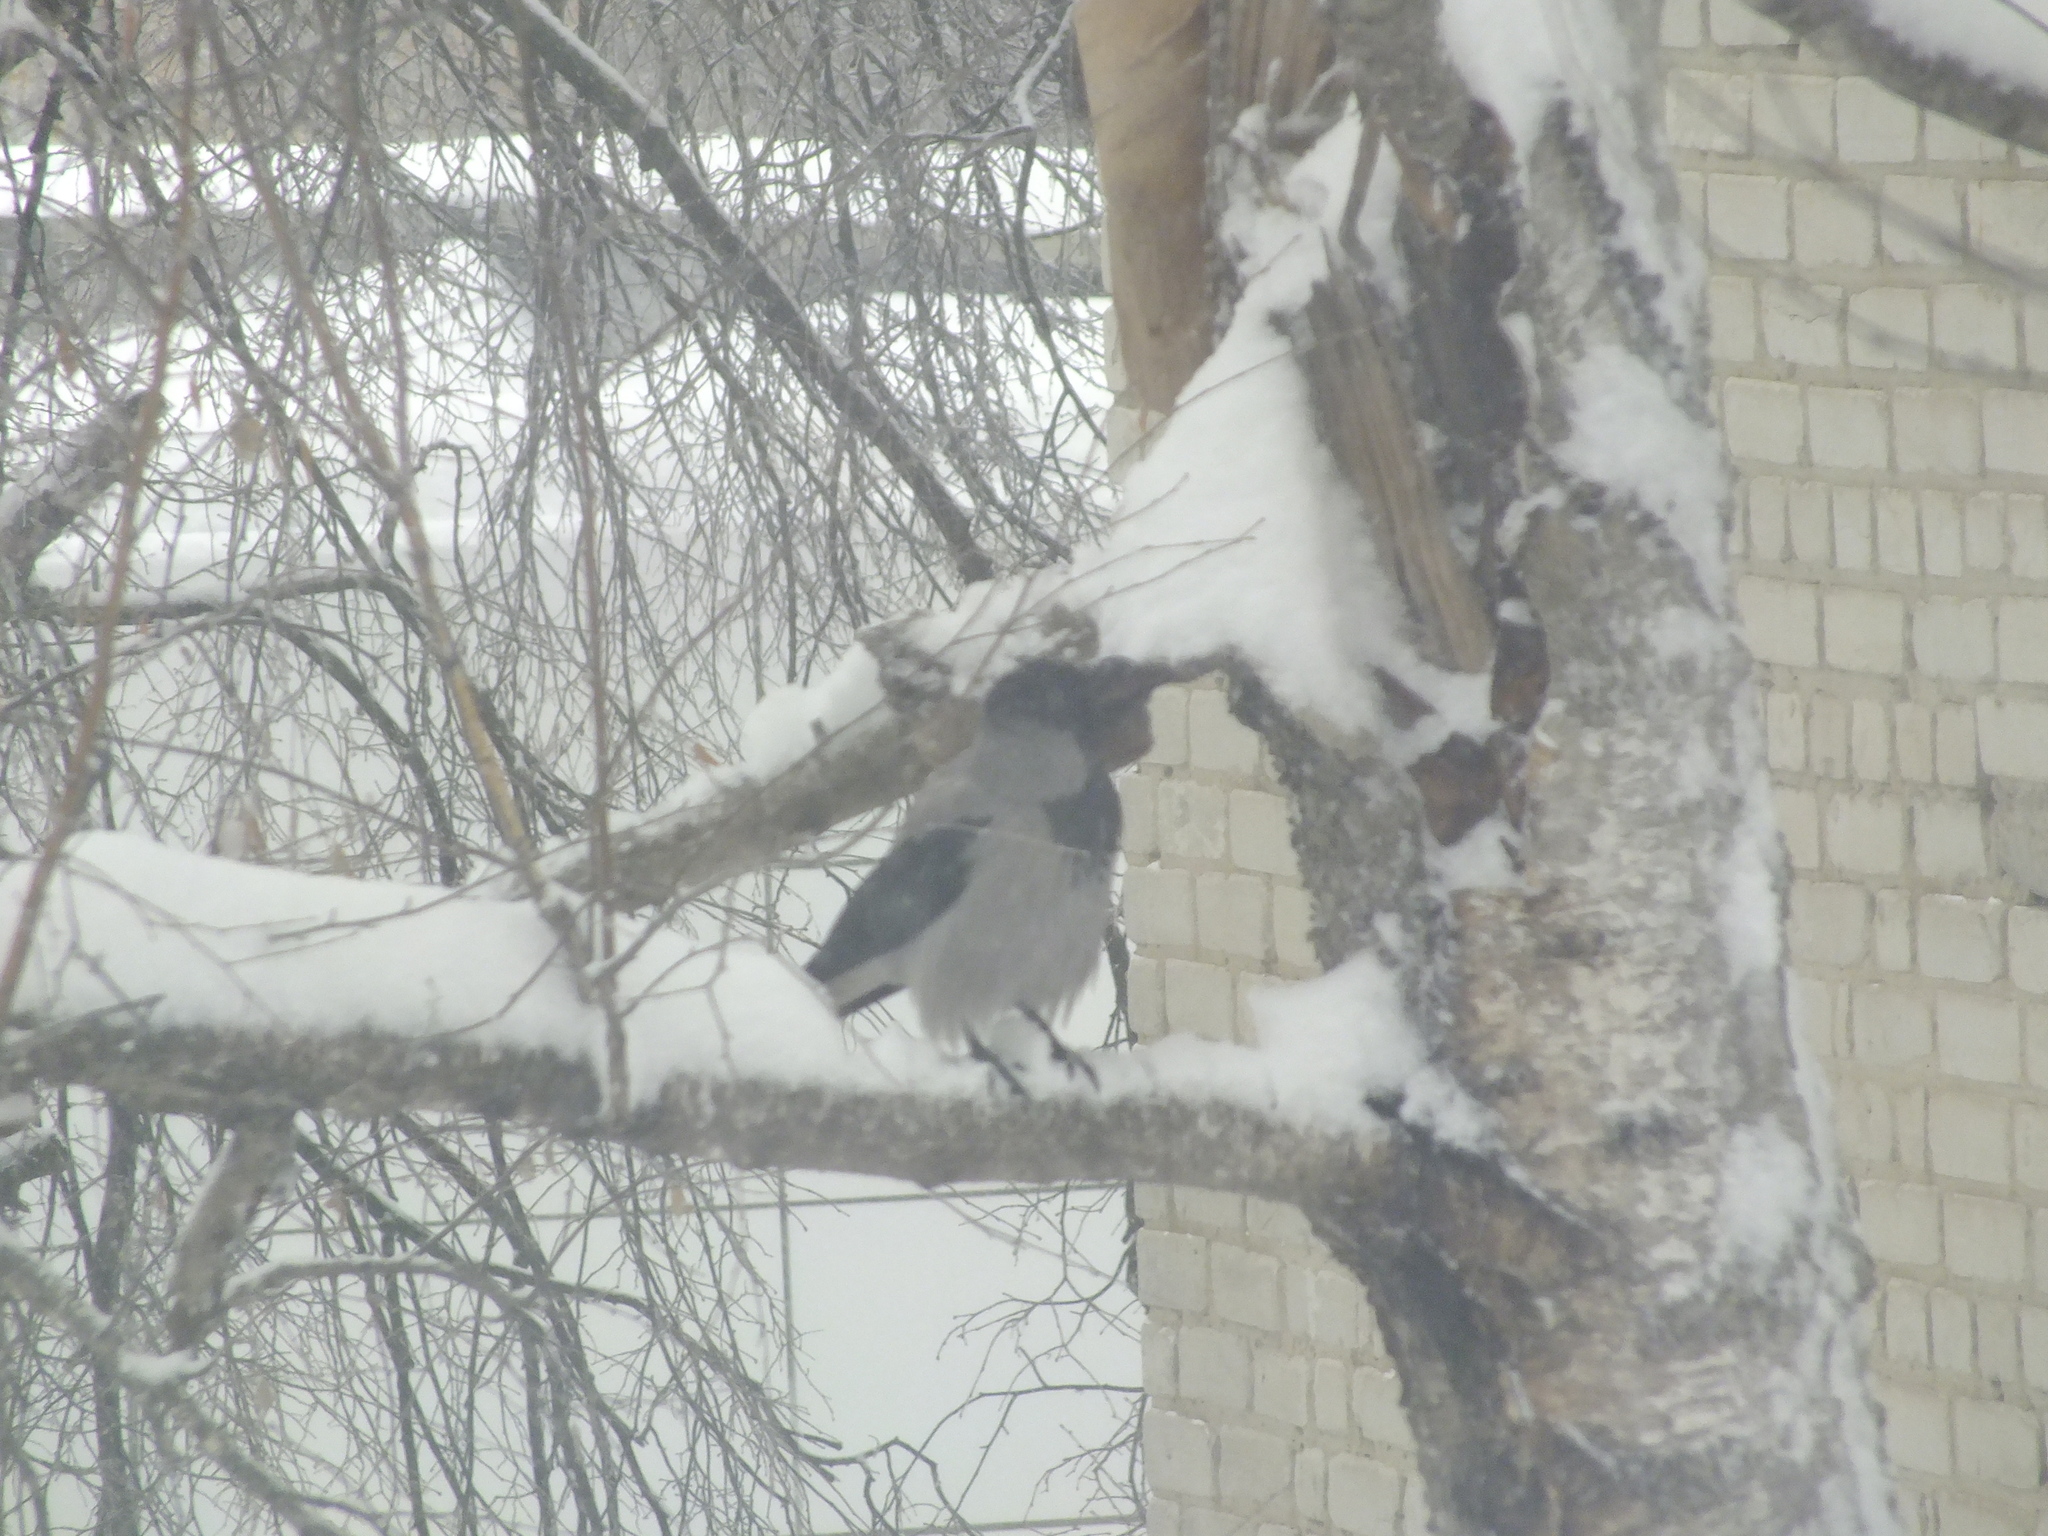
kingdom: Animalia
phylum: Chordata
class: Aves
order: Passeriformes
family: Corvidae
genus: Corvus
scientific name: Corvus cornix
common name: Hooded crow
